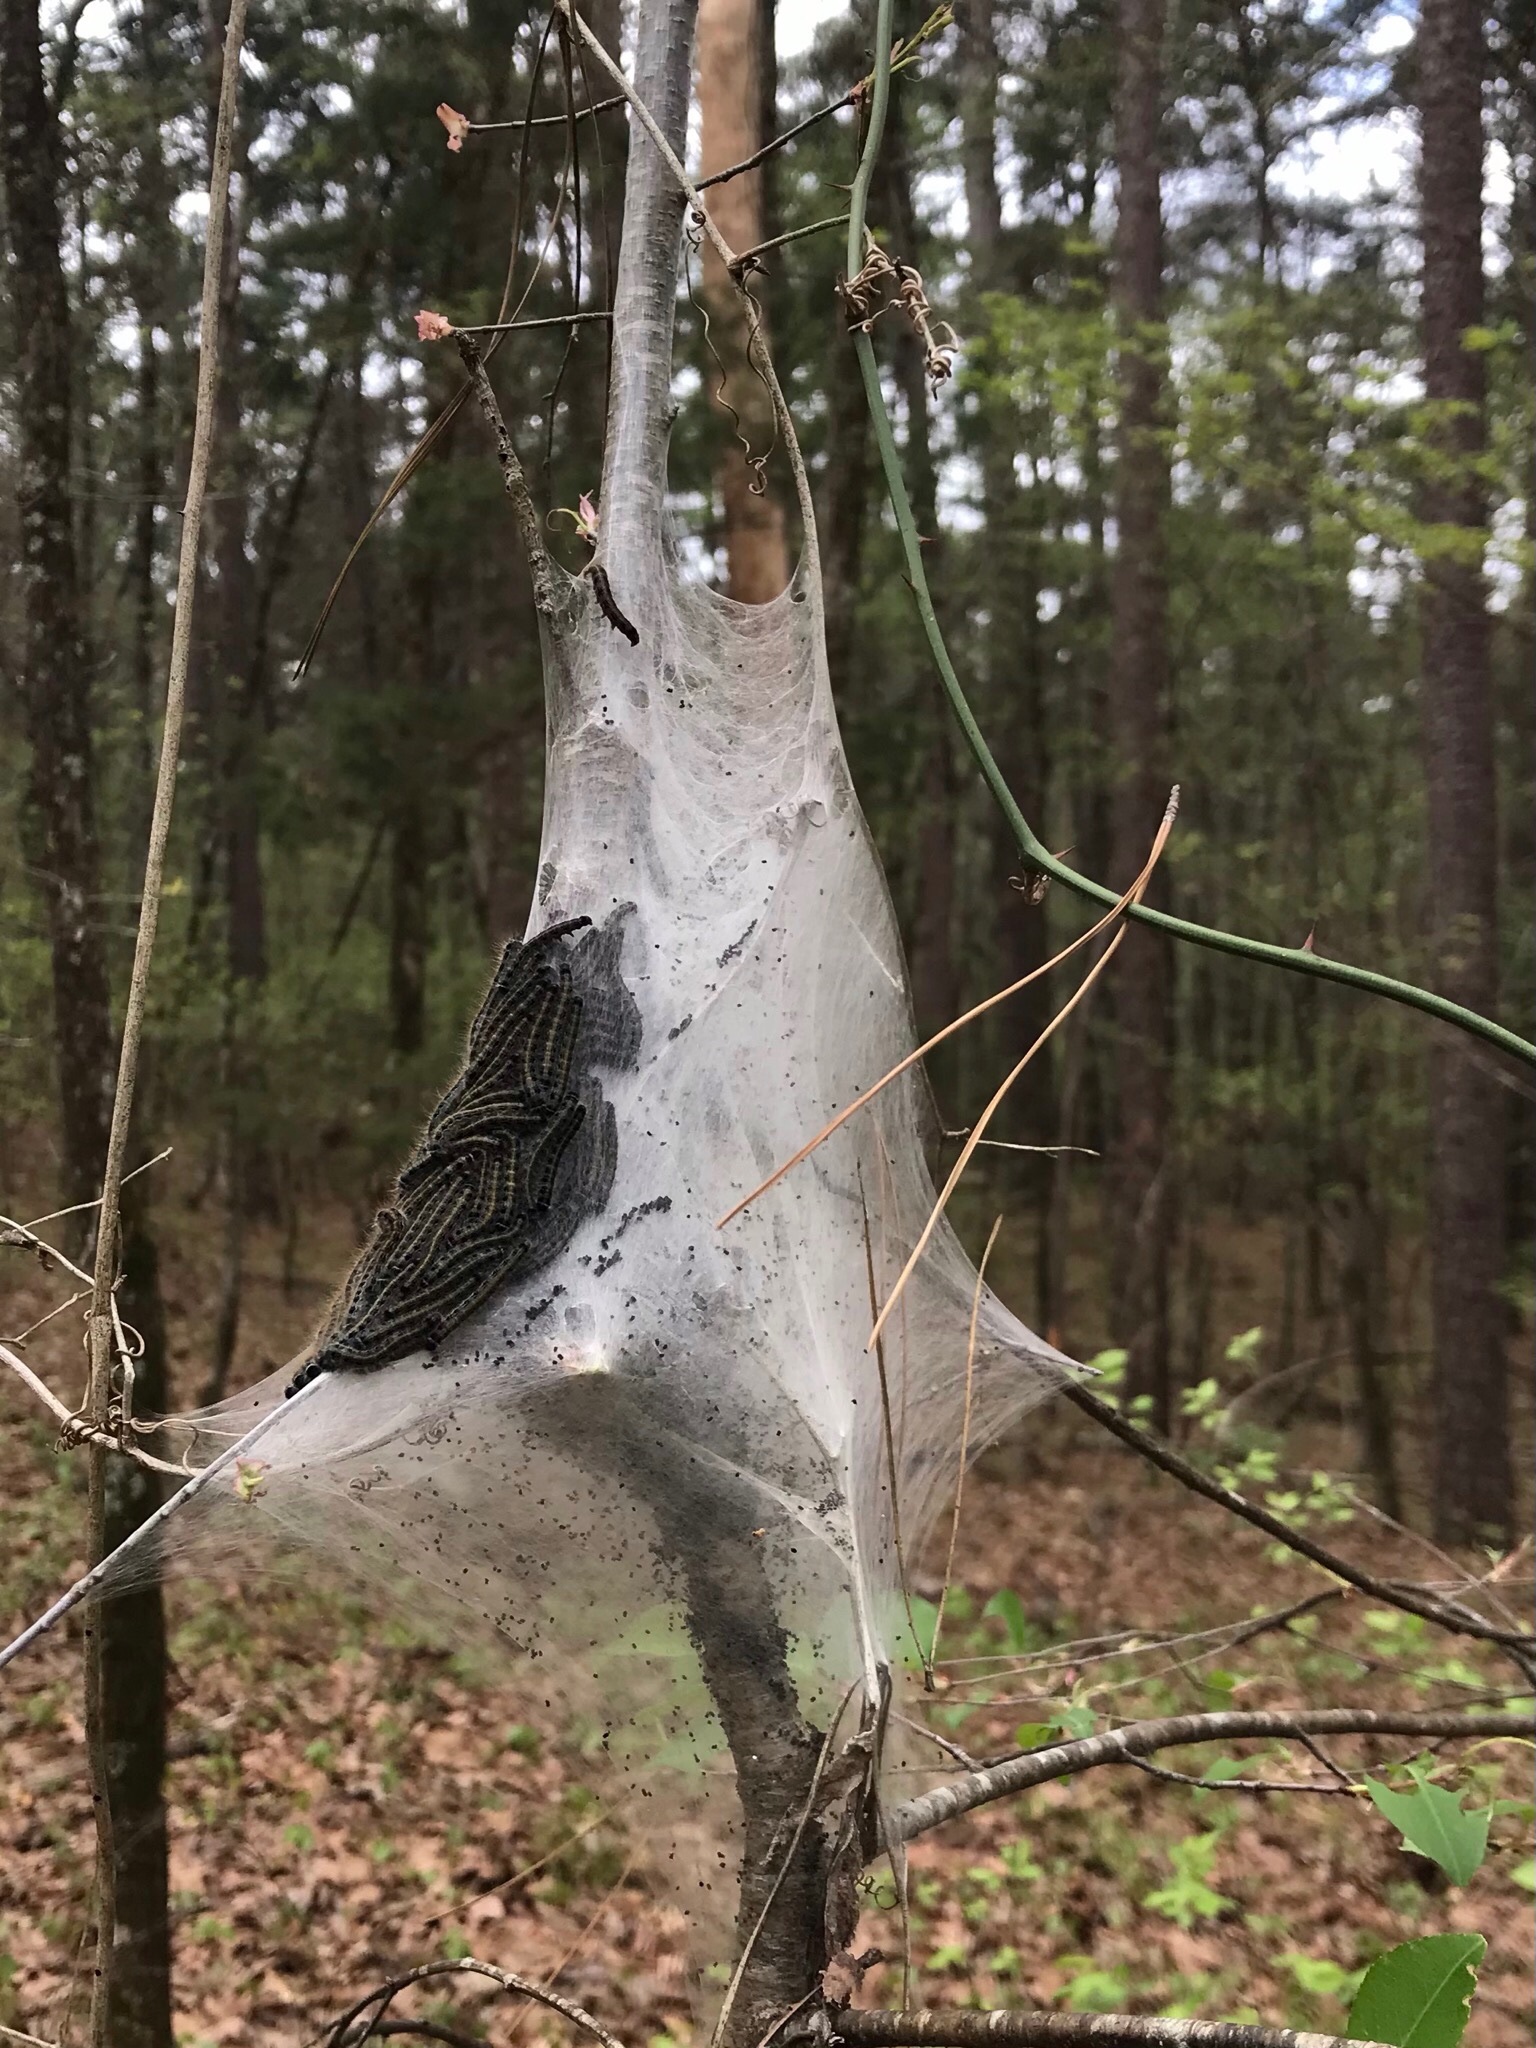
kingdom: Animalia
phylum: Arthropoda
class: Insecta
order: Lepidoptera
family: Lasiocampidae
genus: Malacosoma
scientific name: Malacosoma americana
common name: Eastern tent caterpillar moth
